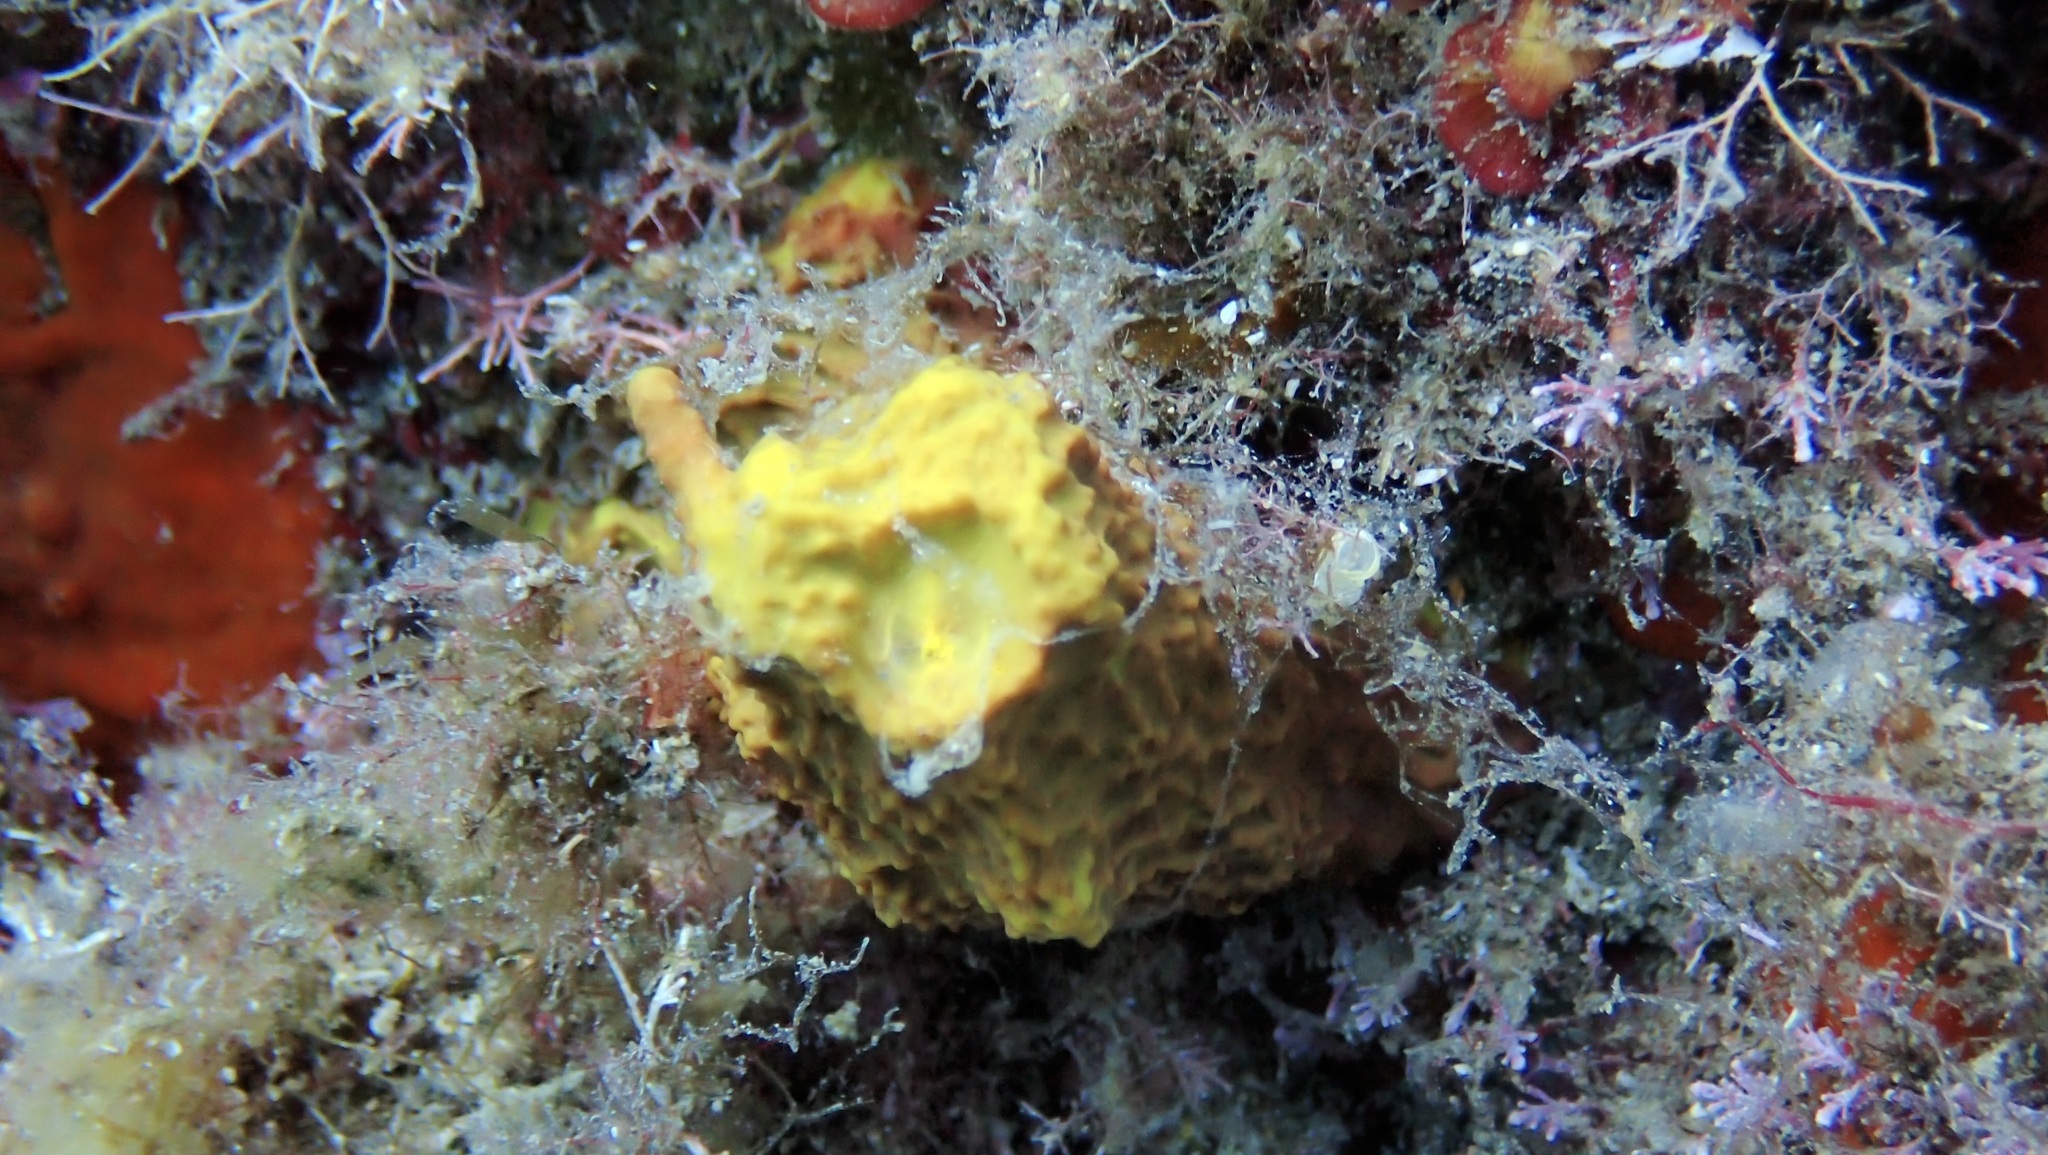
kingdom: Animalia
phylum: Porifera
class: Demospongiae
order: Verongiida
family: Aplysinidae
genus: Aplysina
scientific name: Aplysina aerophoba
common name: Aureate sponge
